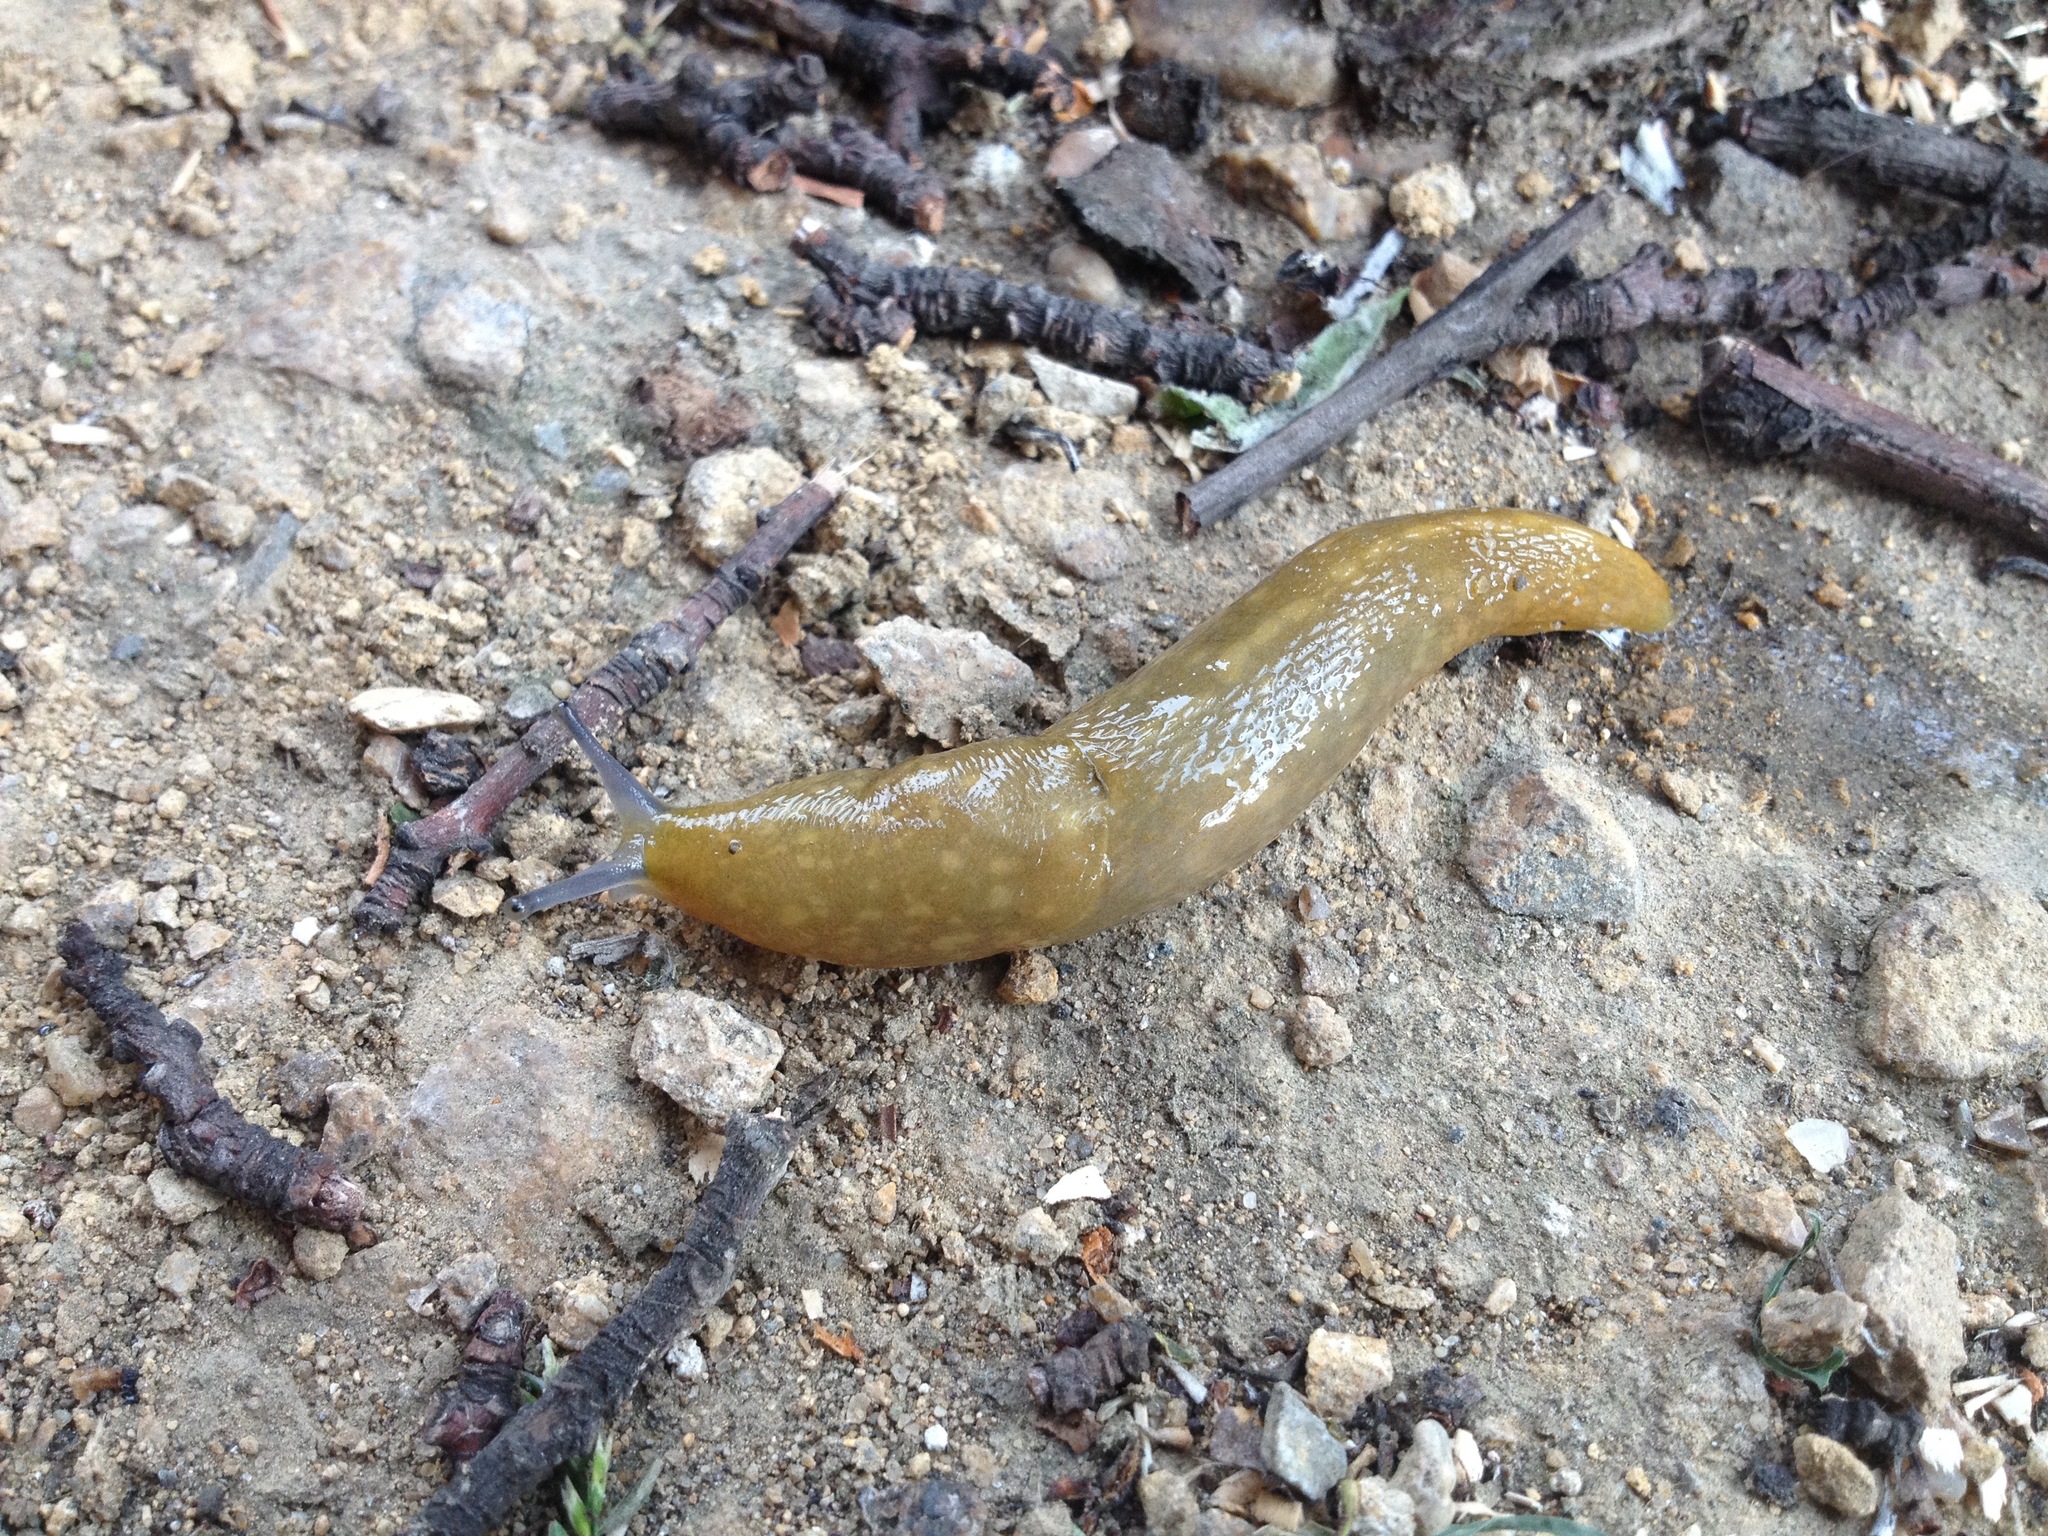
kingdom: Animalia
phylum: Mollusca
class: Gastropoda
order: Stylommatophora
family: Limacidae
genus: Limacus
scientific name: Limacus flavus
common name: Yellow gardenslug
